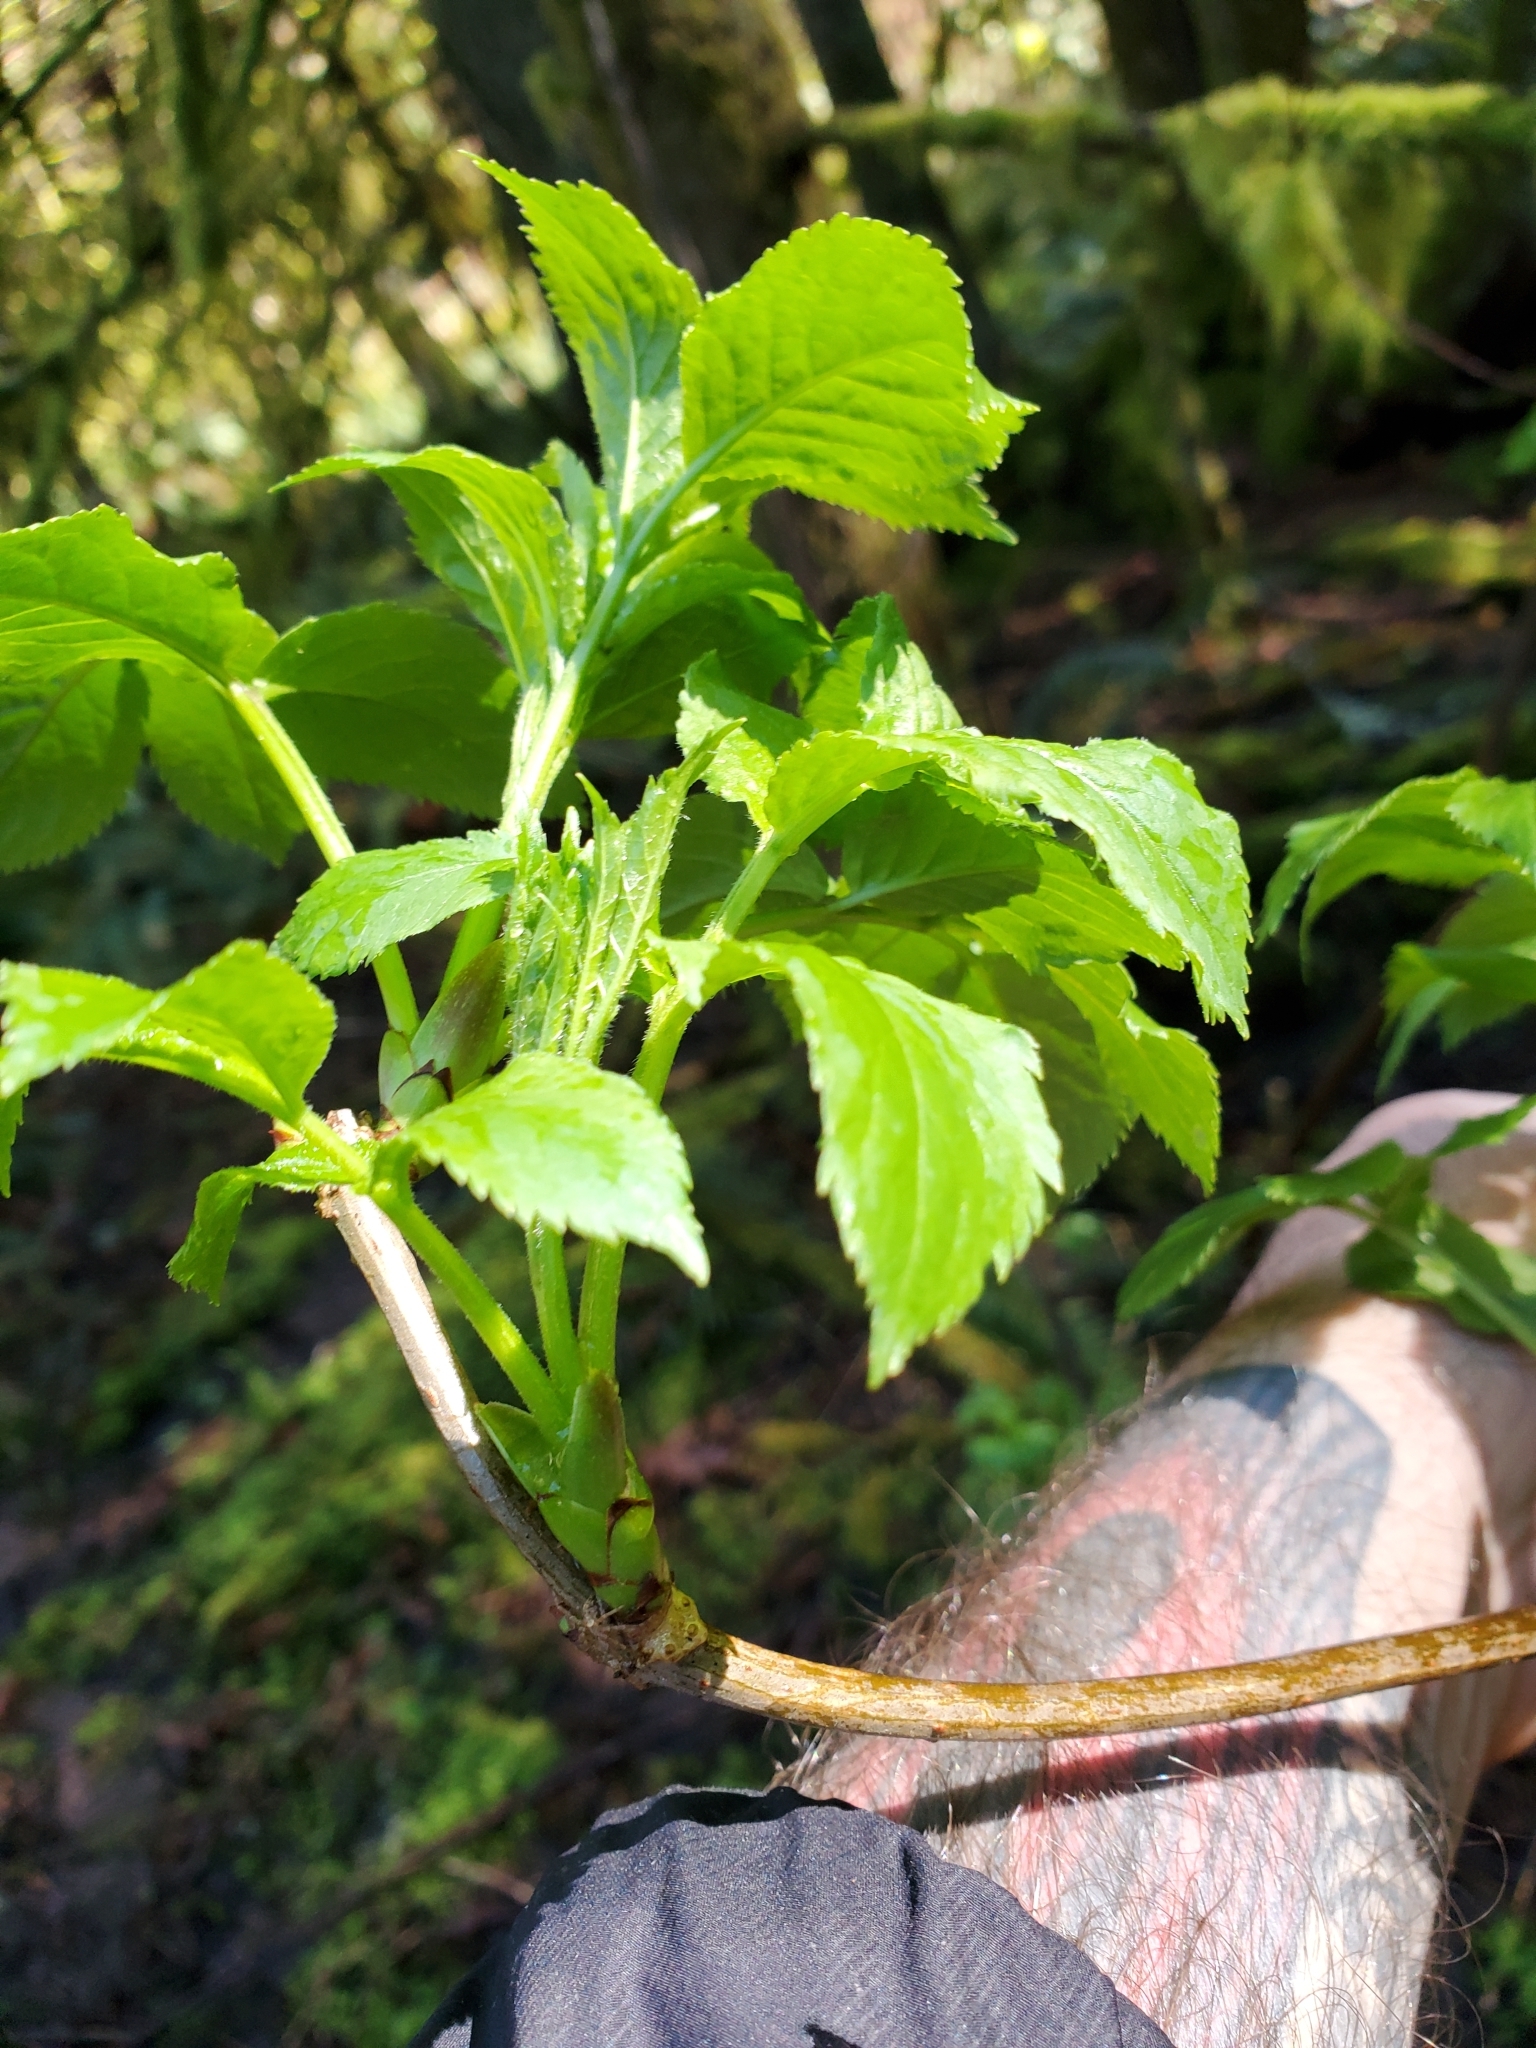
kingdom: Plantae
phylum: Tracheophyta
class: Magnoliopsida
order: Dipsacales
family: Viburnaceae
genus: Sambucus
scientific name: Sambucus racemosa
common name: Red-berried elder
